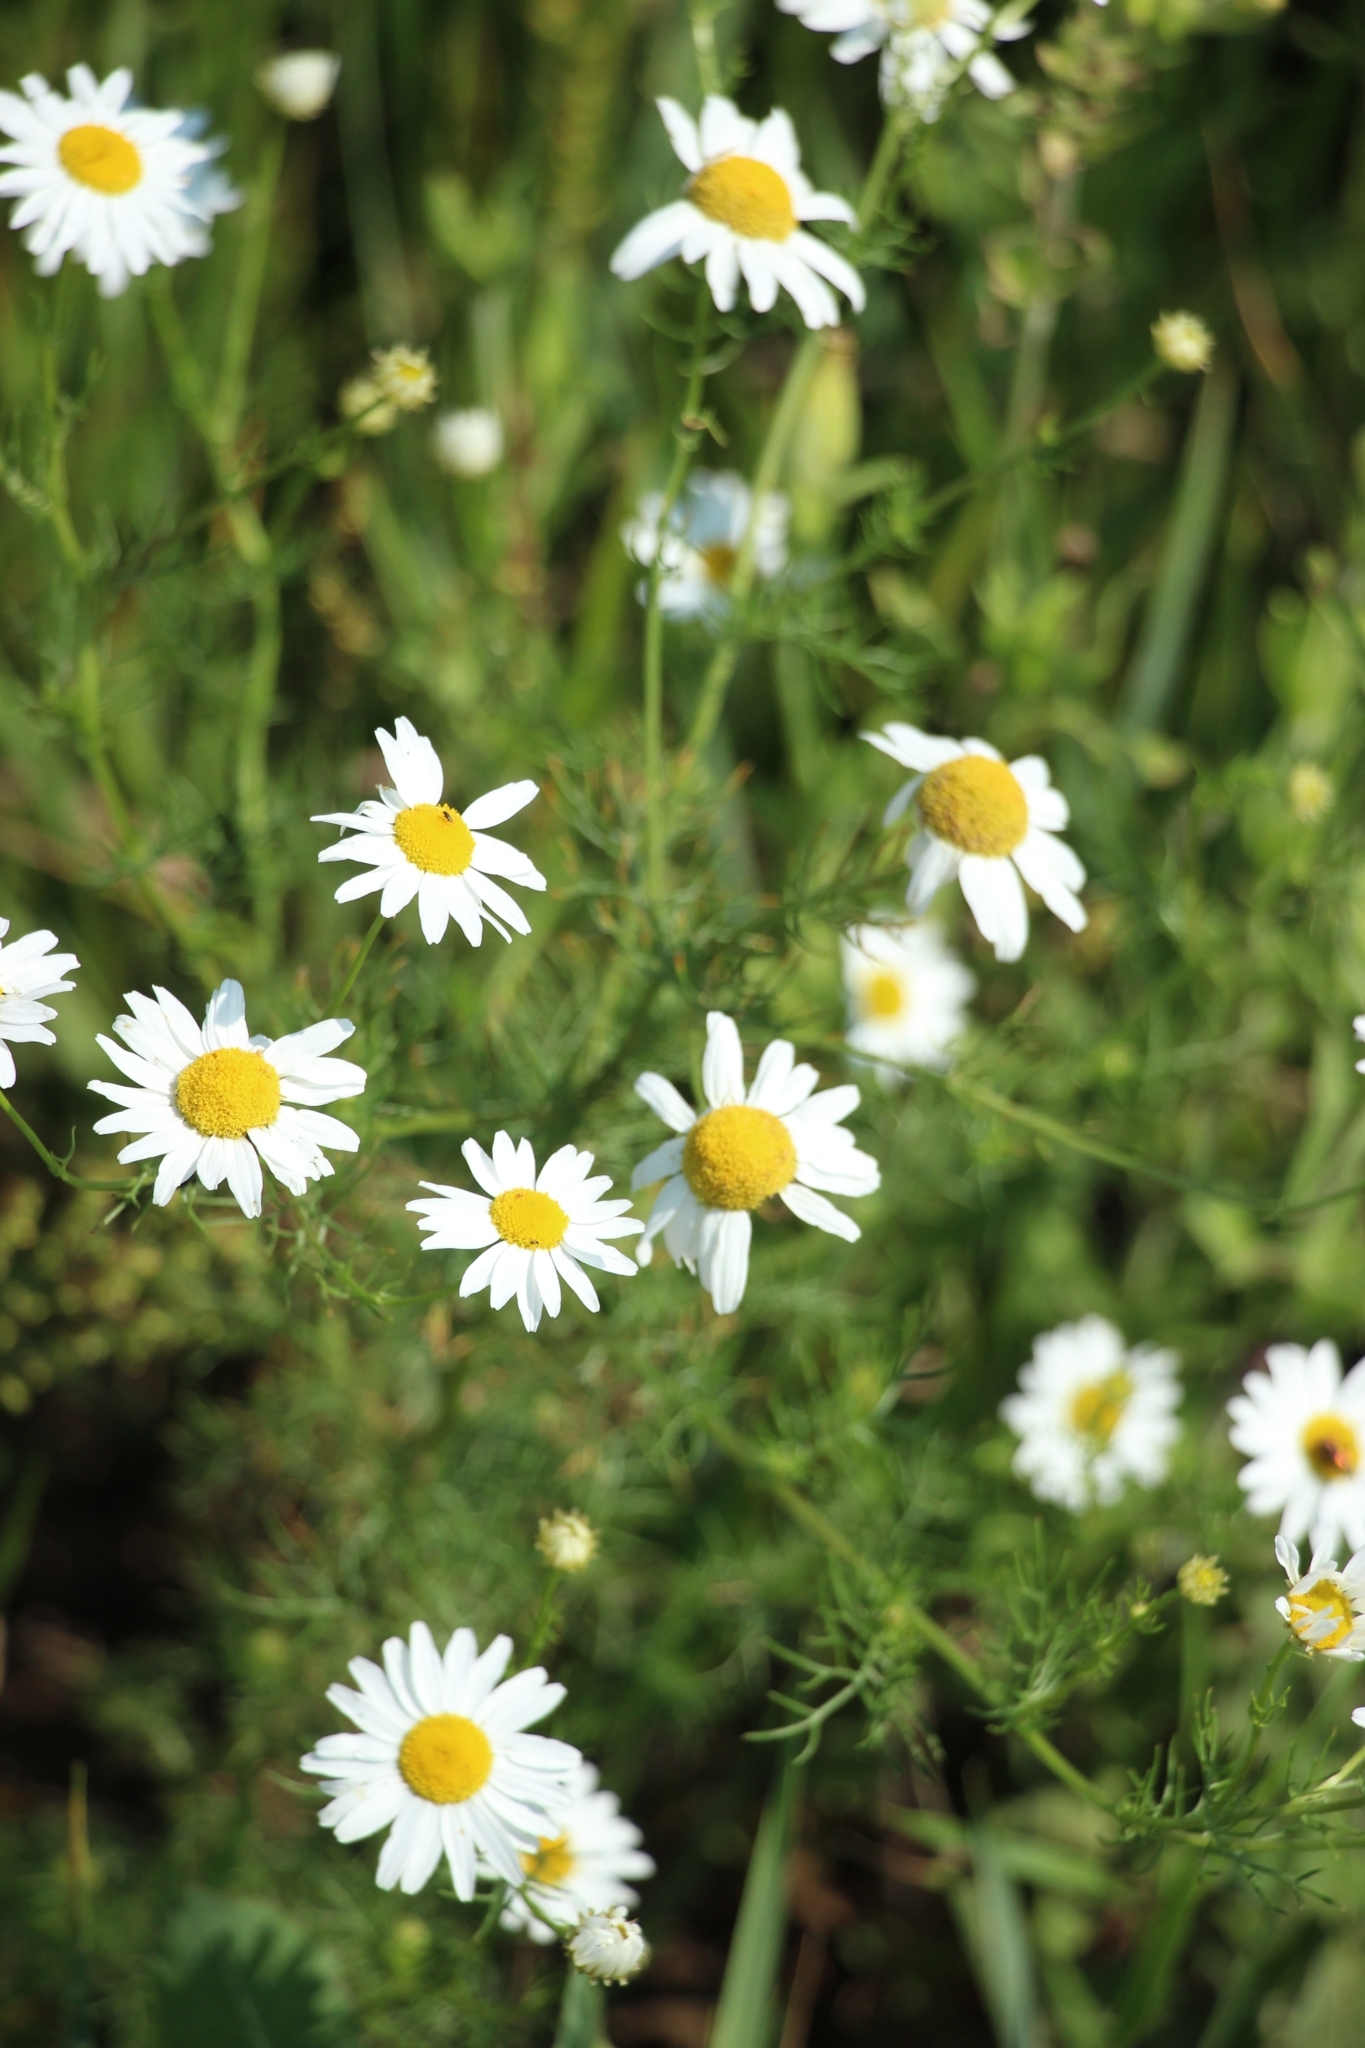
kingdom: Plantae
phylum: Tracheophyta
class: Magnoliopsida
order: Asterales
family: Asteraceae
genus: Tripleurospermum
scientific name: Tripleurospermum inodorum
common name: Scentless mayweed
